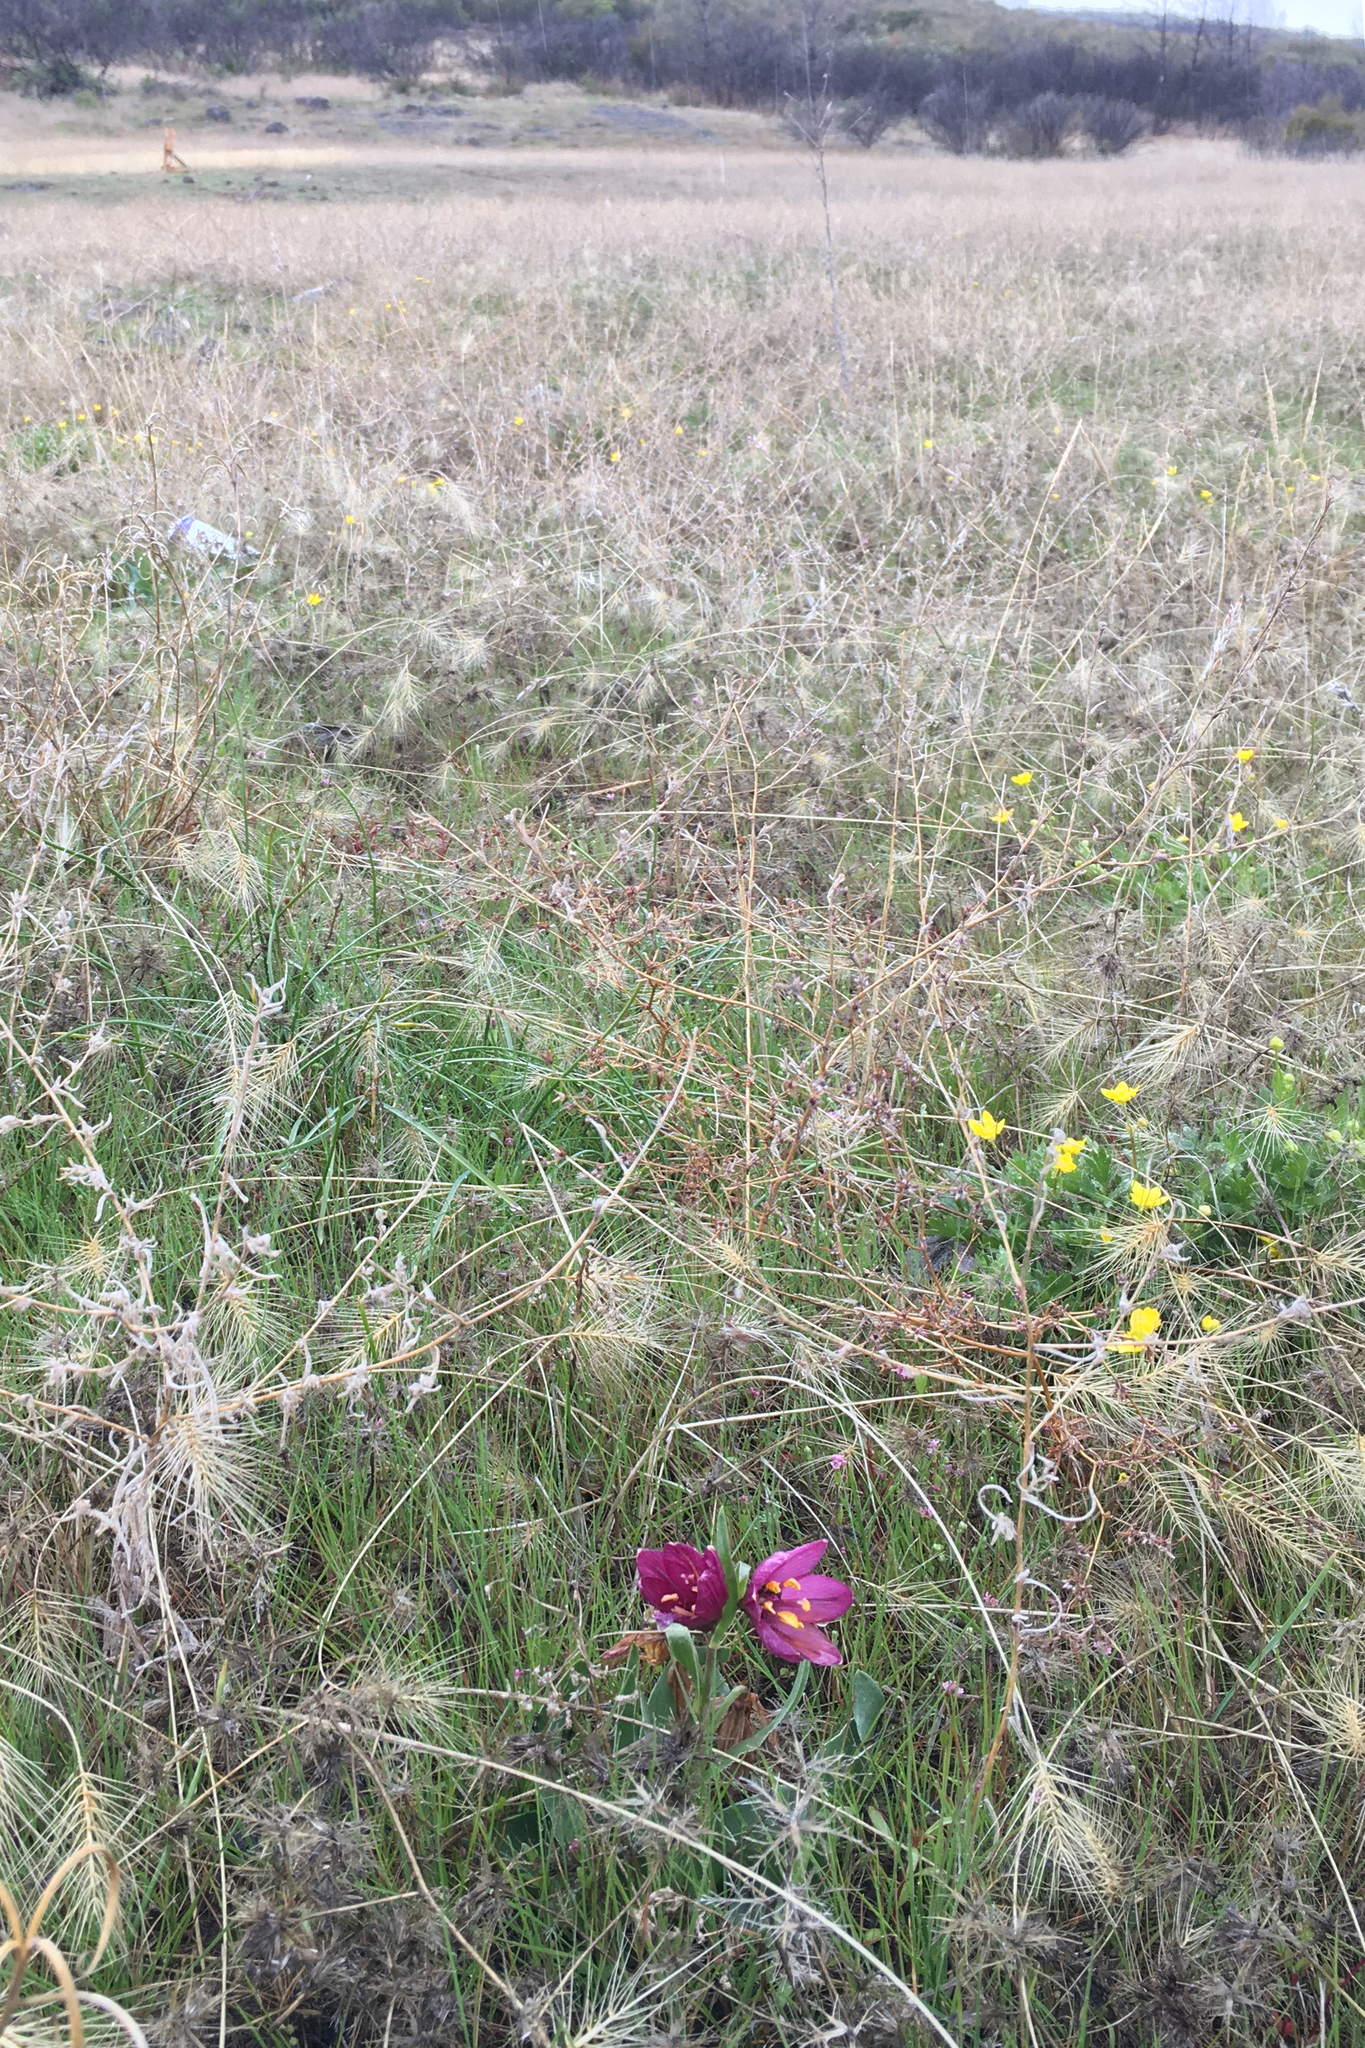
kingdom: Plantae
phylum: Tracheophyta
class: Liliopsida
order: Liliales
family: Liliaceae
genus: Fritillaria
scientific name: Fritillaria pluriflora
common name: Adobe-lily
